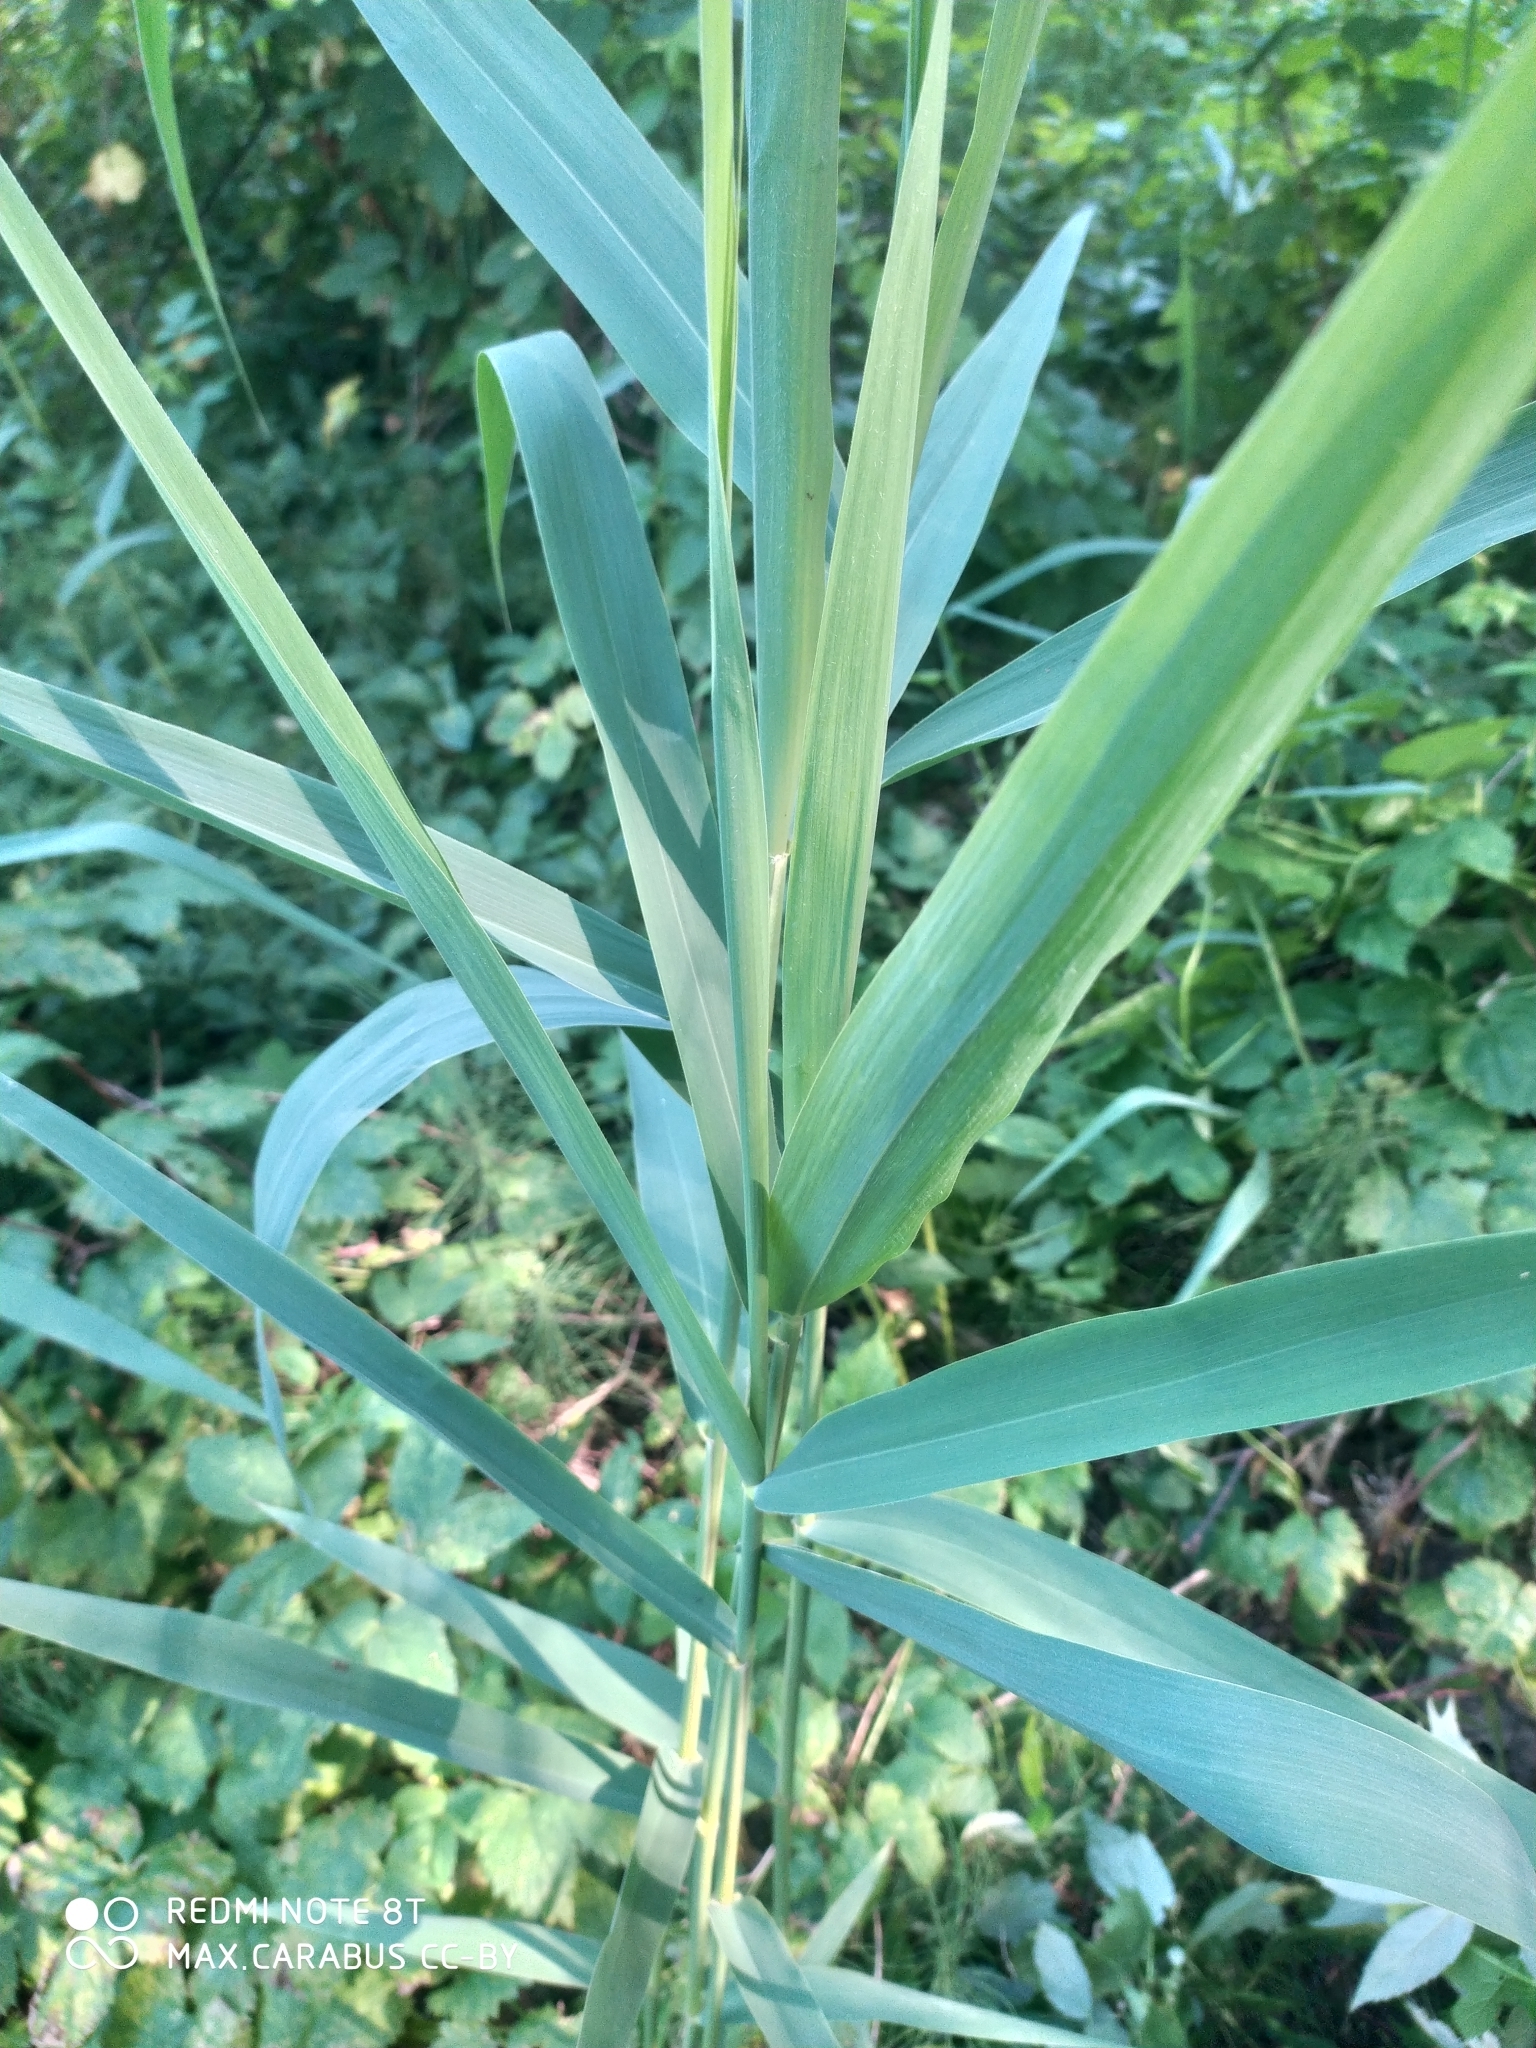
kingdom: Plantae
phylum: Tracheophyta
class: Liliopsida
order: Poales
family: Poaceae
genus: Phragmites
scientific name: Phragmites australis
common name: Common reed
